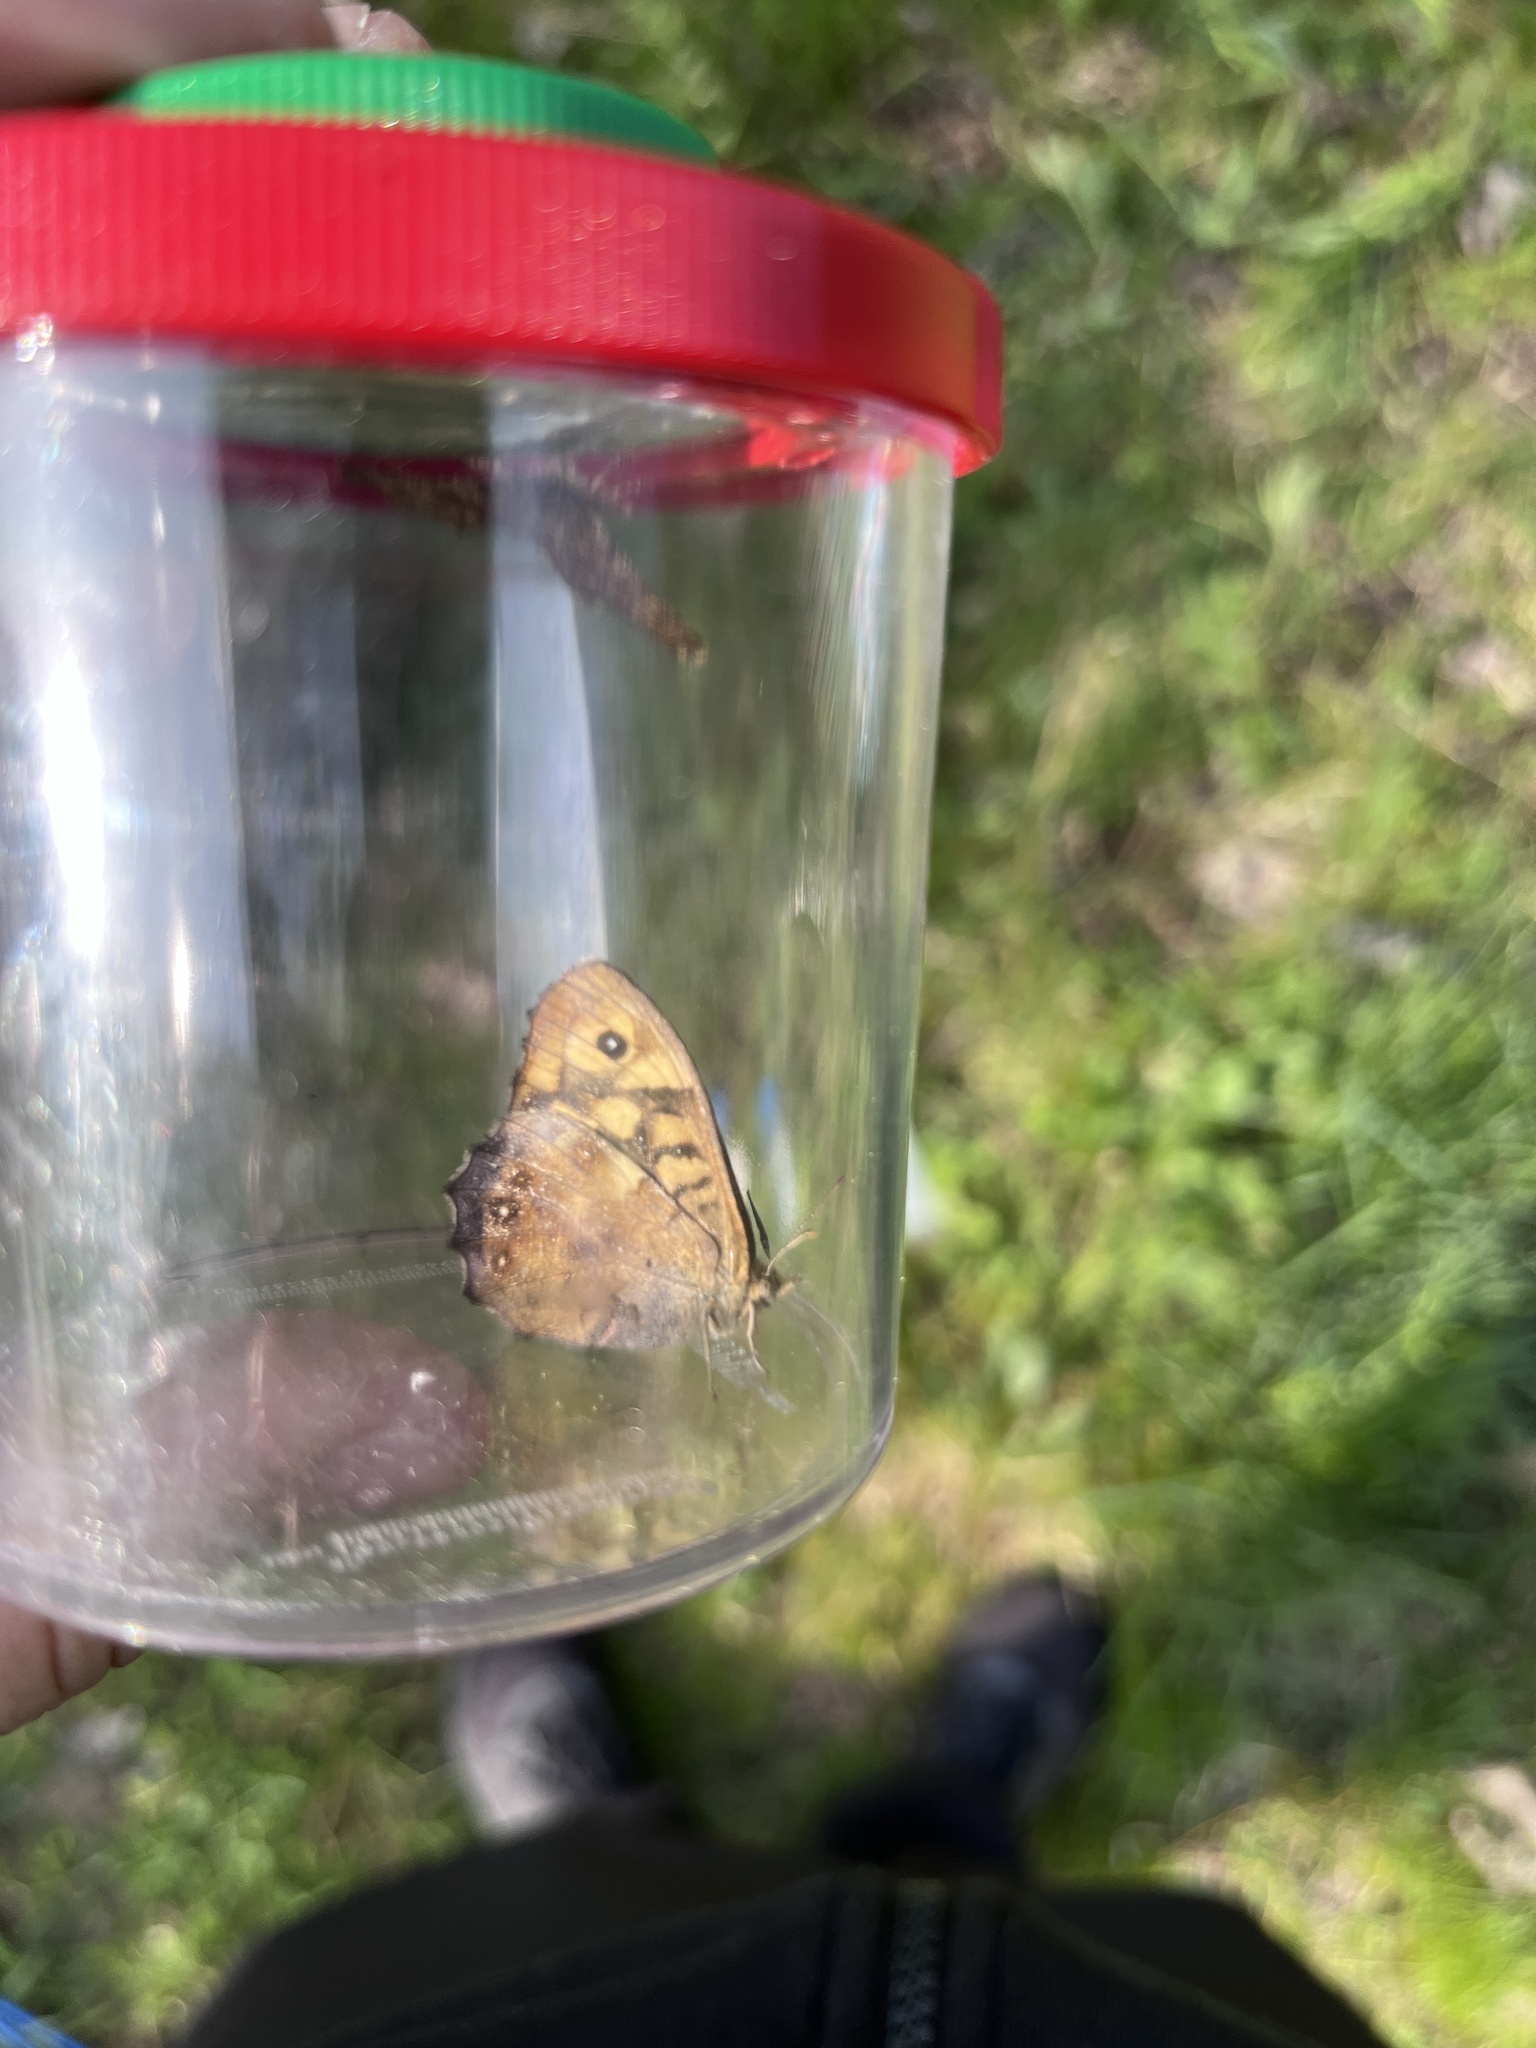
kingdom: Animalia
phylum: Arthropoda
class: Insecta
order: Lepidoptera
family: Nymphalidae
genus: Pararge
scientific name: Pararge aegeria
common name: Speckled wood
